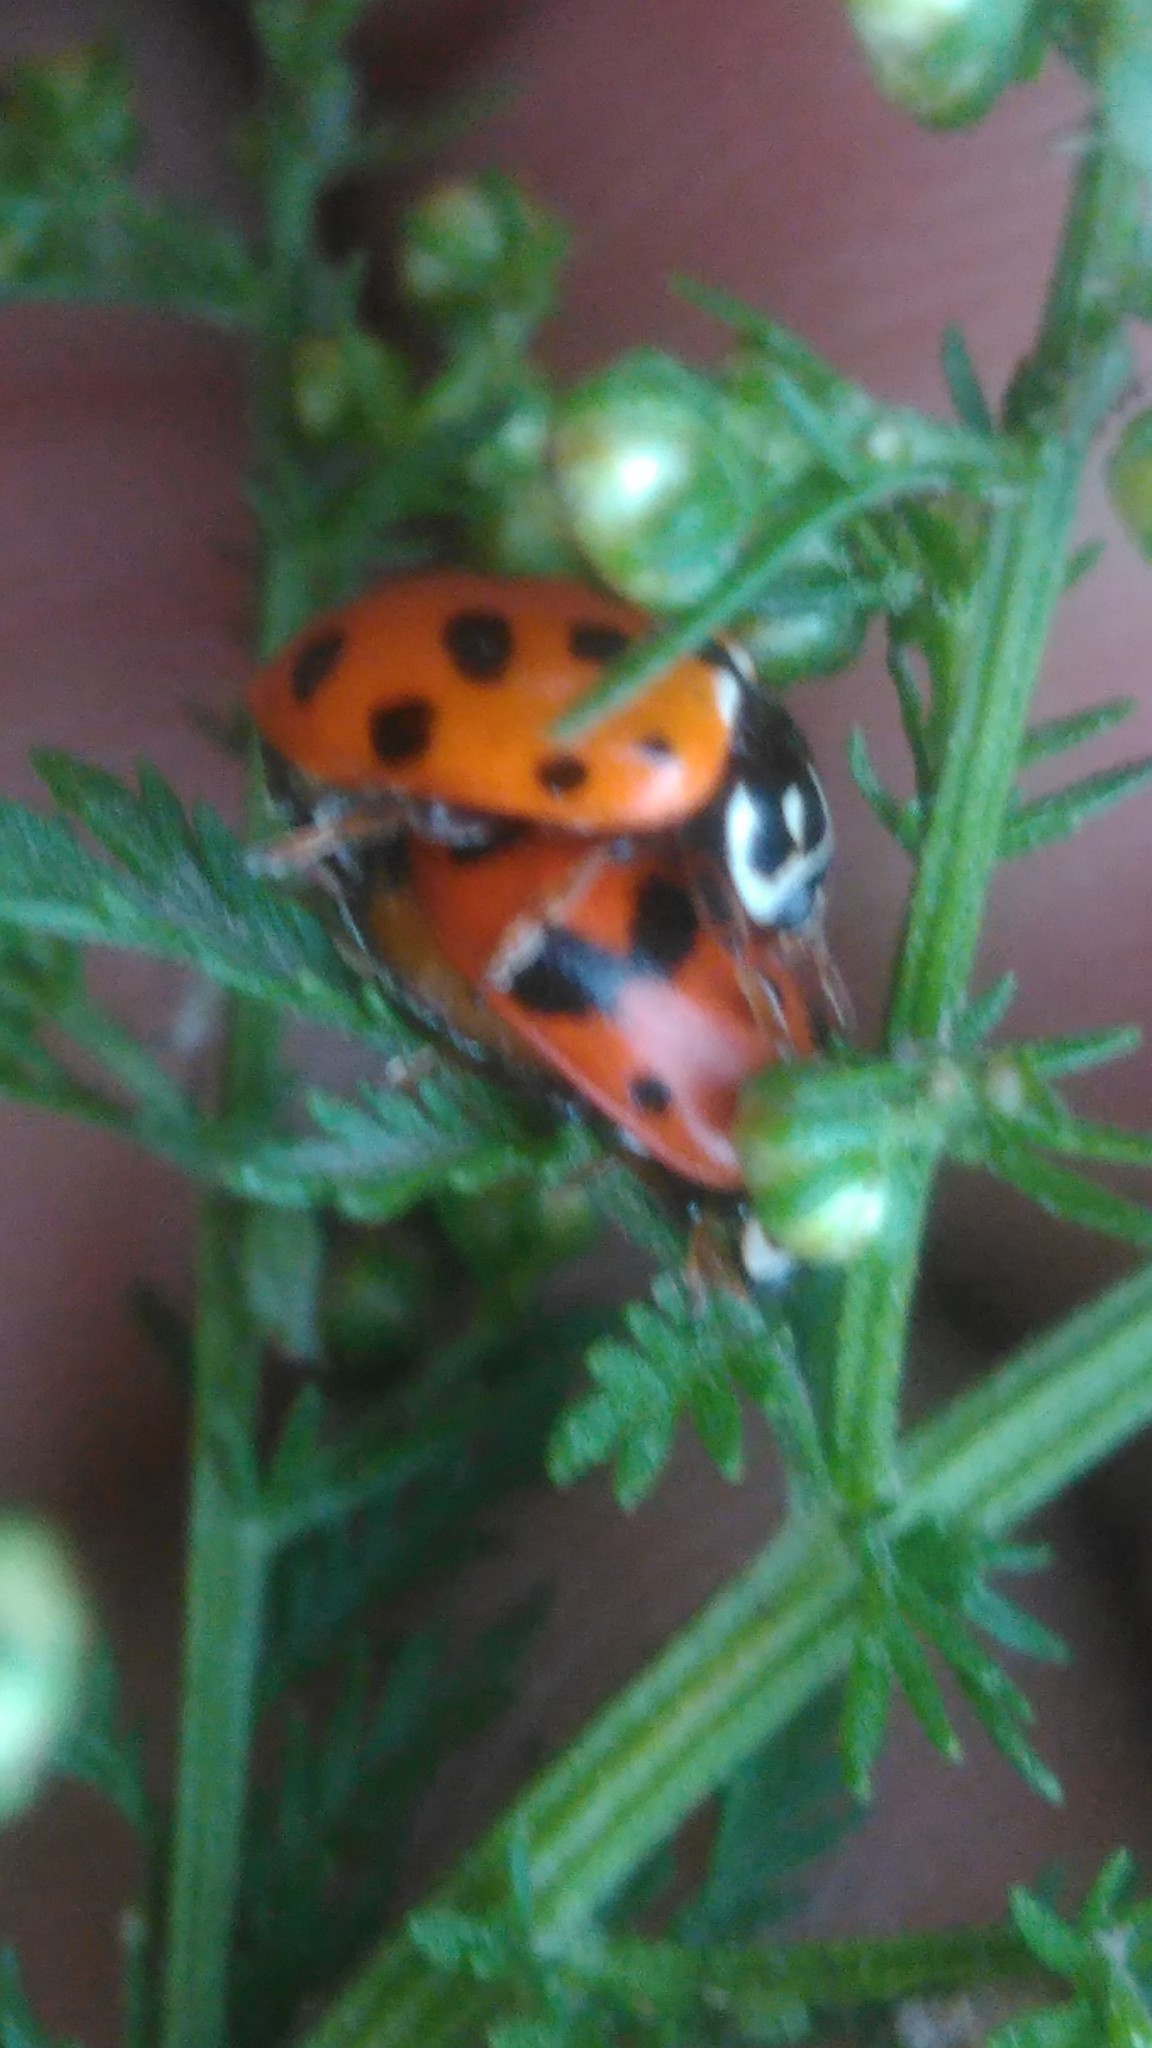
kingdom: Animalia
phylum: Arthropoda
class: Insecta
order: Coleoptera
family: Coccinellidae
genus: Hippodamia
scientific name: Hippodamia variegata
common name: Ladybird beetle
